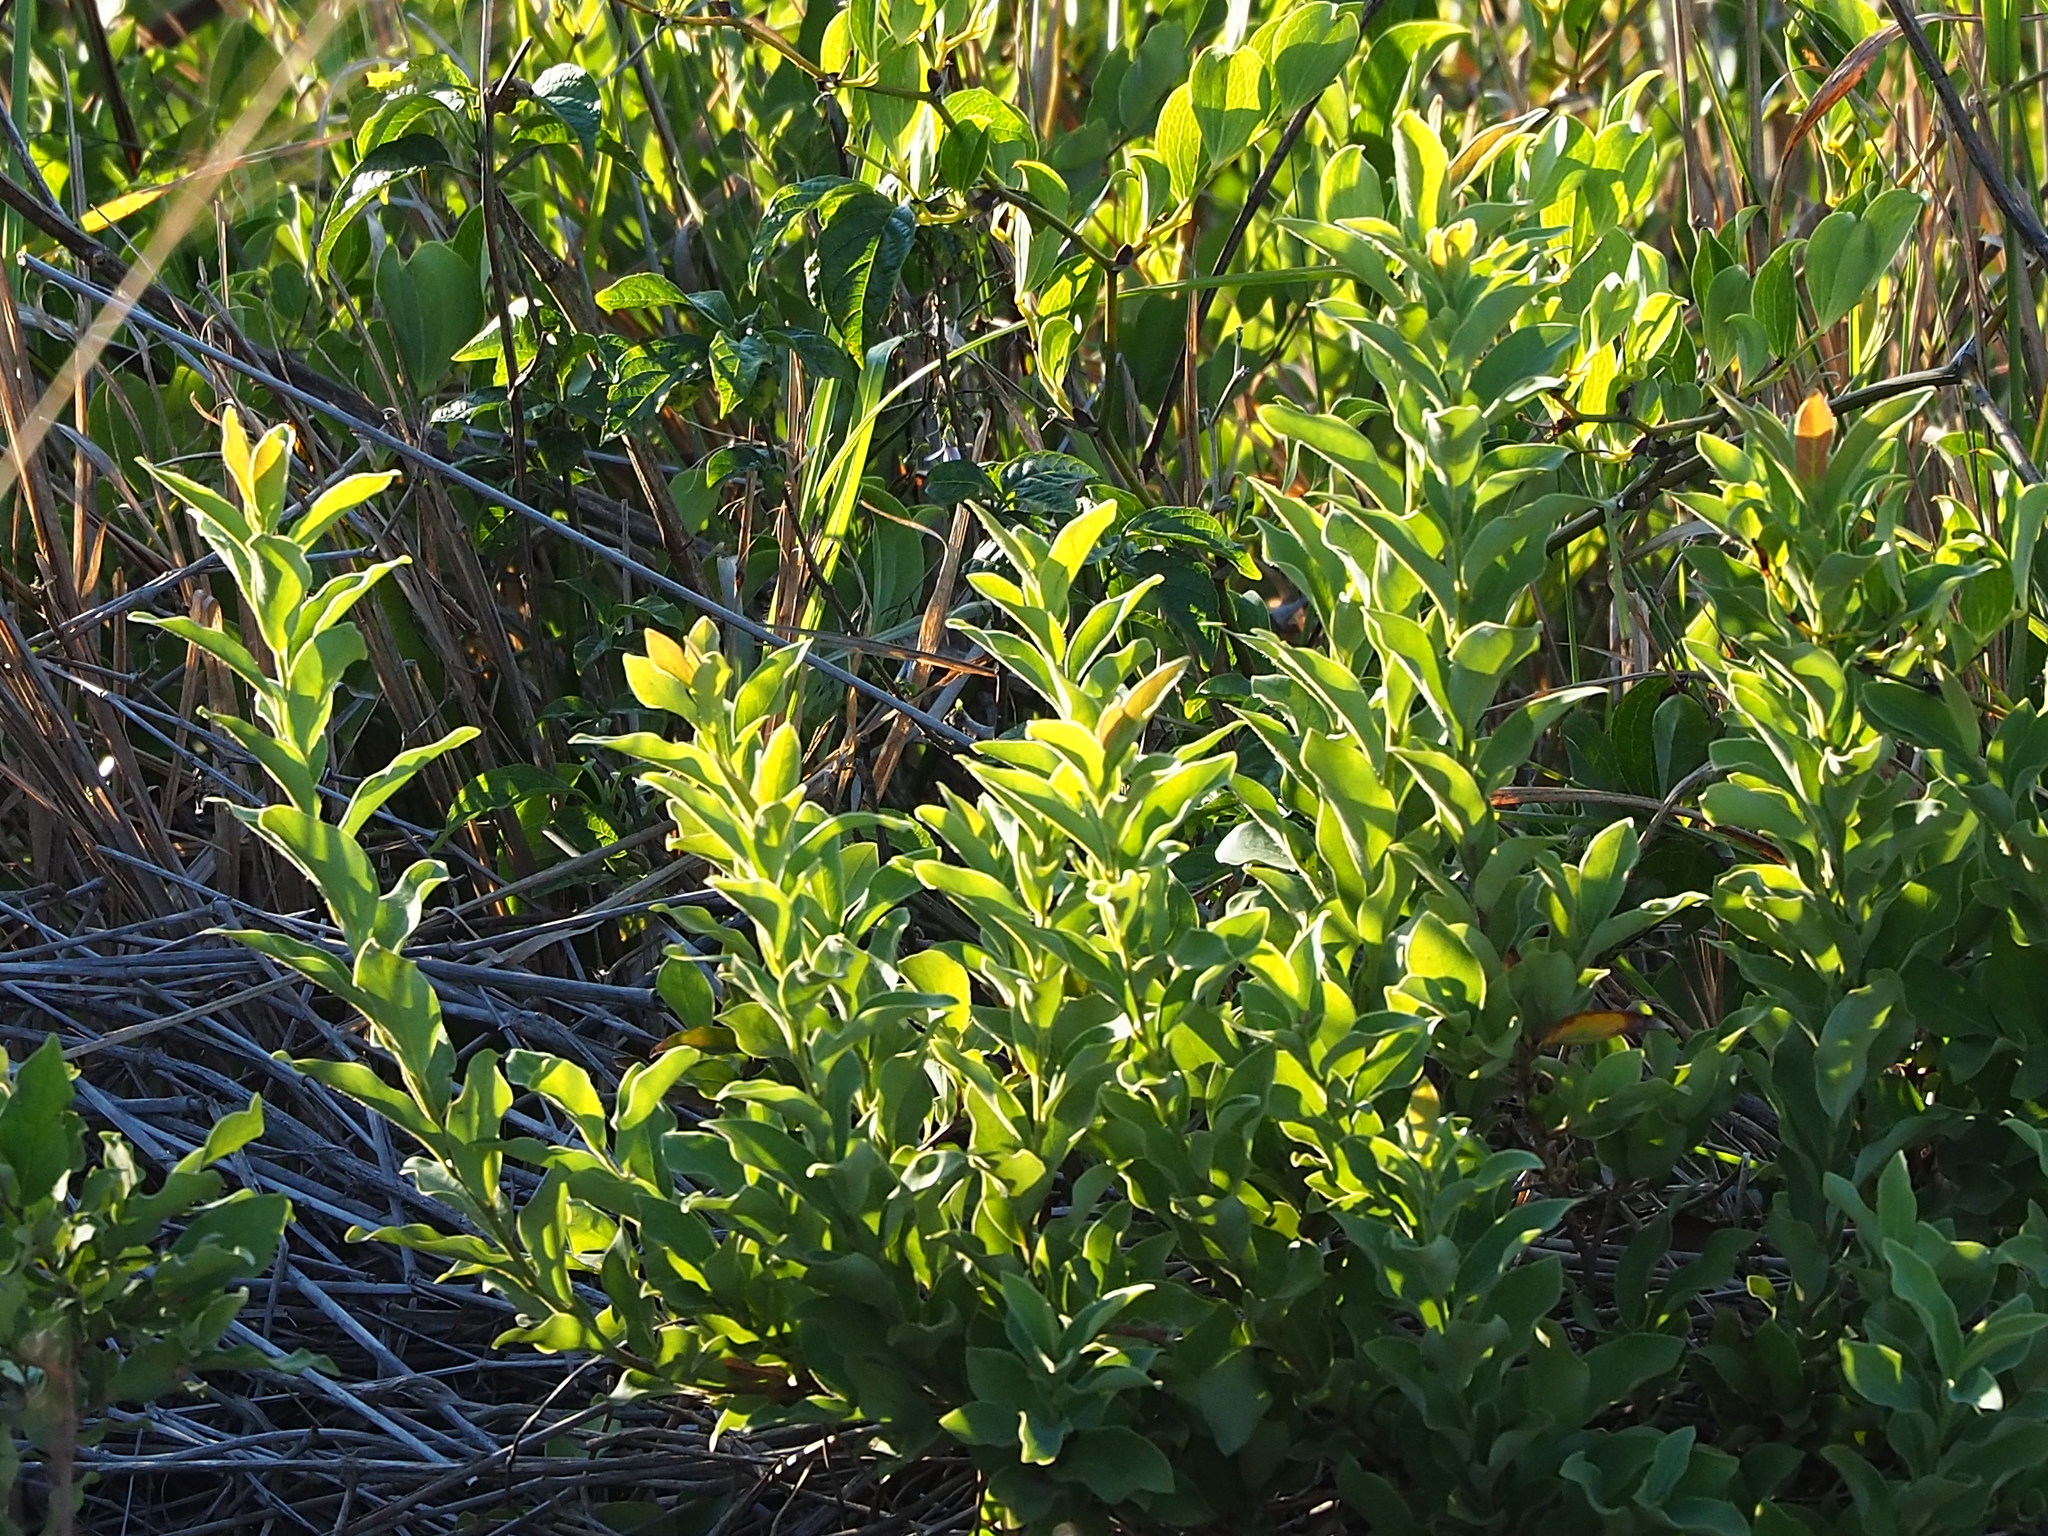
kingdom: Plantae
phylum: Tracheophyta
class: Magnoliopsida
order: Laurales
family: Lauraceae
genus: Lindera
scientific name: Lindera glauca
